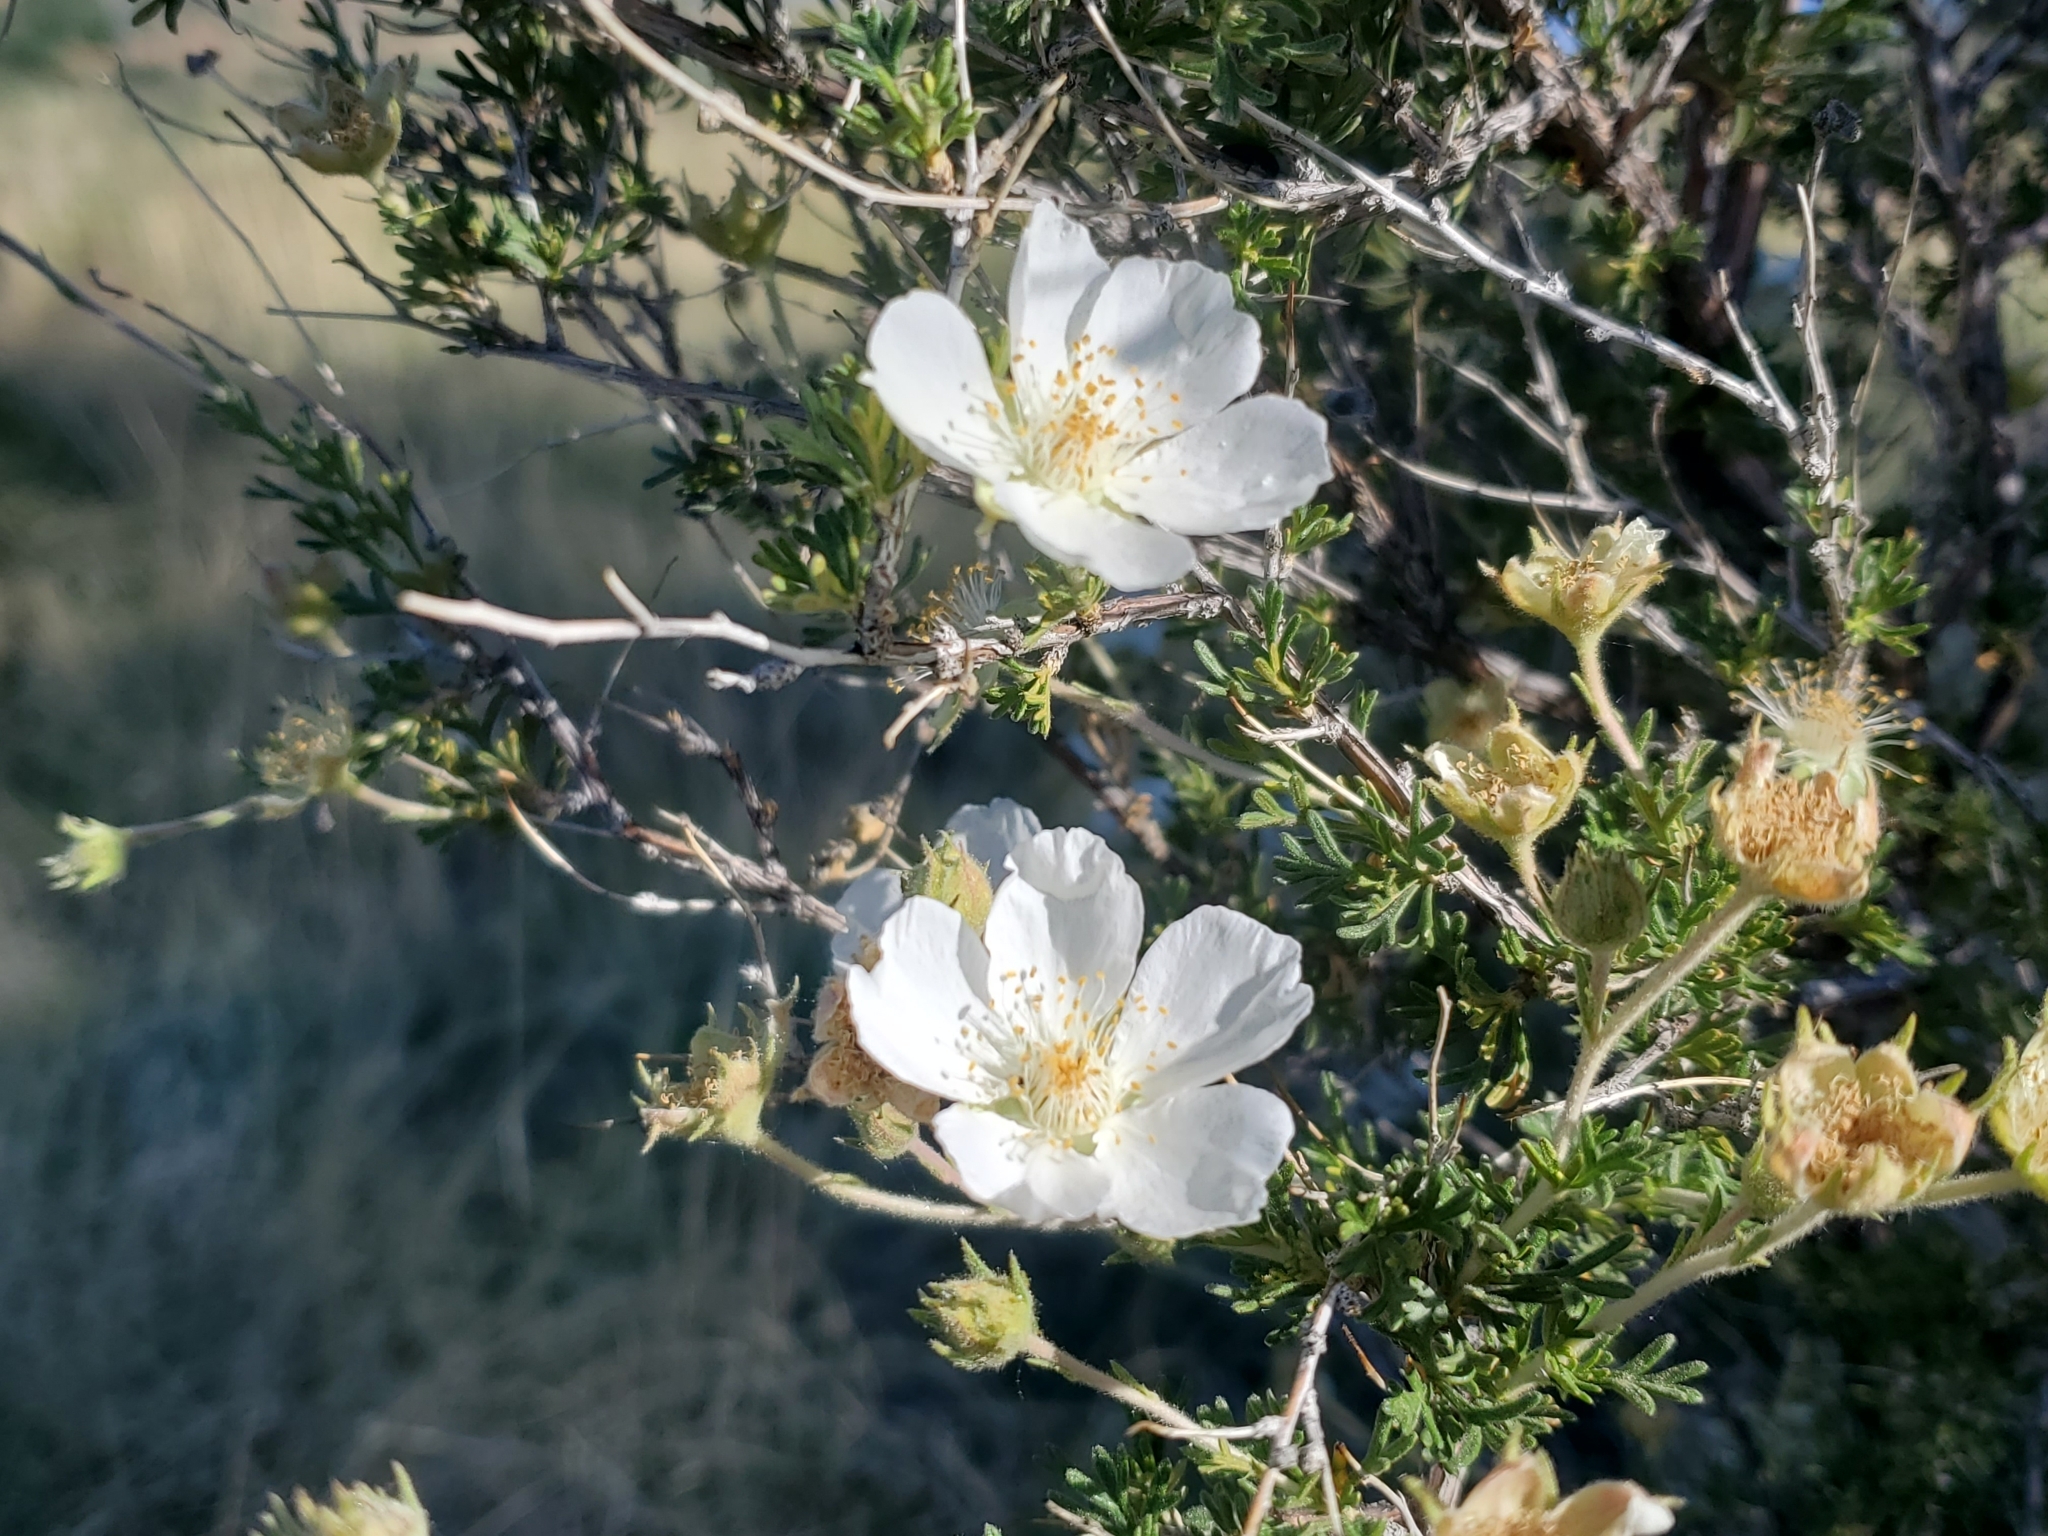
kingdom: Plantae
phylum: Tracheophyta
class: Magnoliopsida
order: Rosales
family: Rosaceae
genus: Fallugia
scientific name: Fallugia paradoxa
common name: Apache-plume
